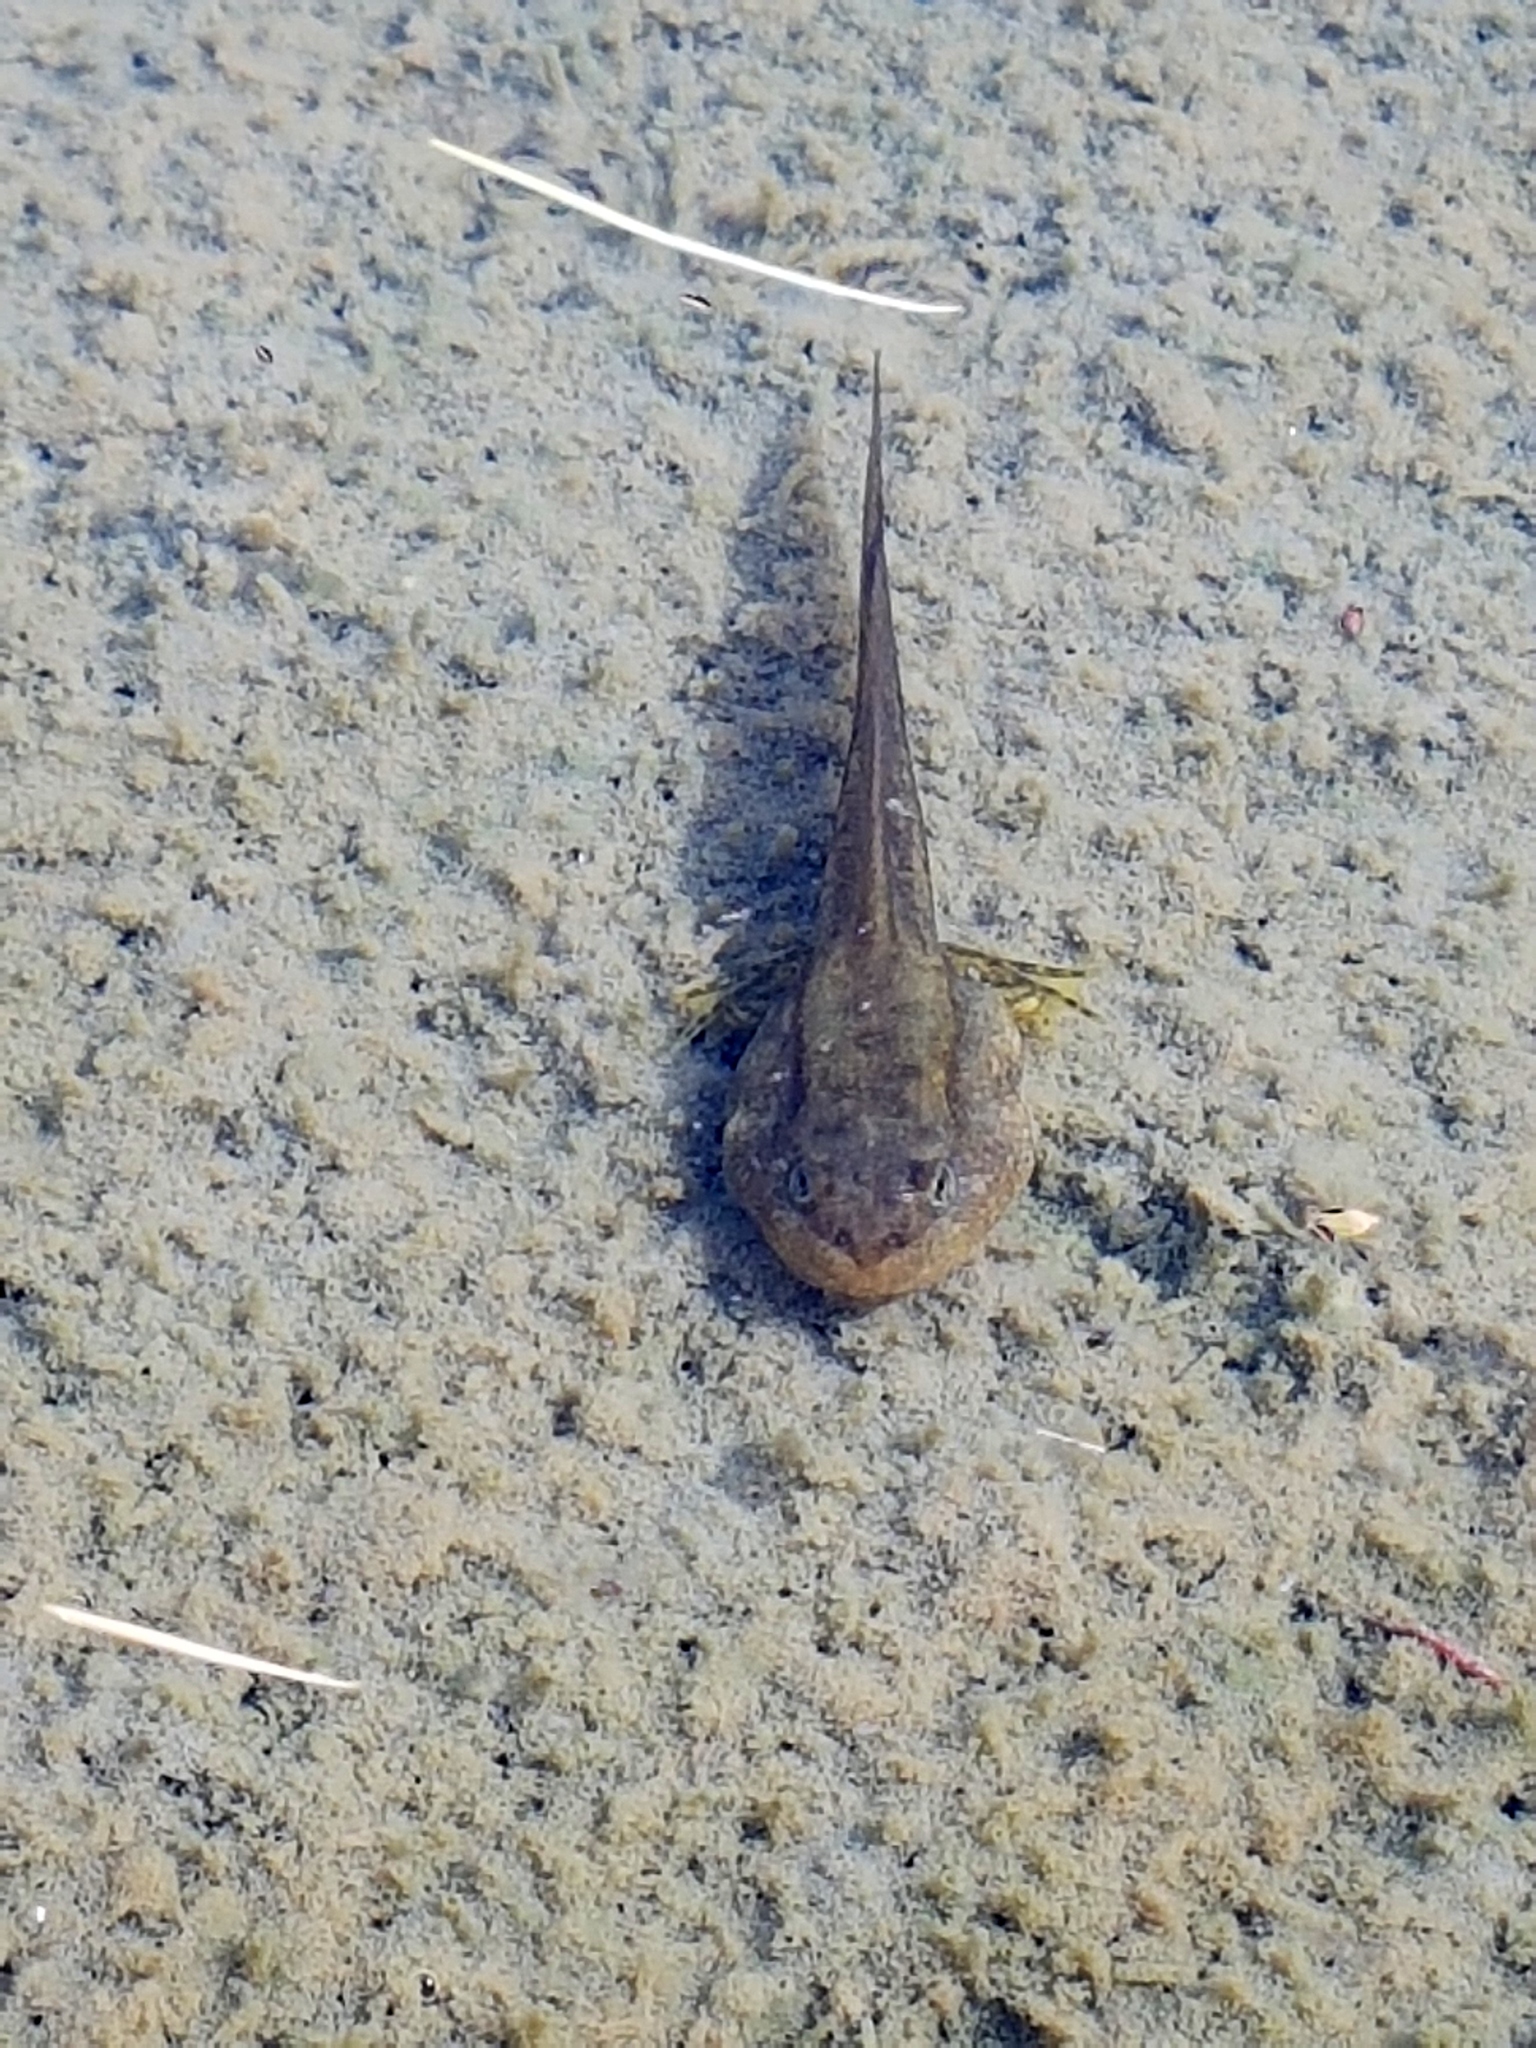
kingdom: Animalia
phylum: Chordata
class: Amphibia
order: Anura
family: Ranidae
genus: Rana
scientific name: Rana luteiventris
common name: Columbia spotted frog
